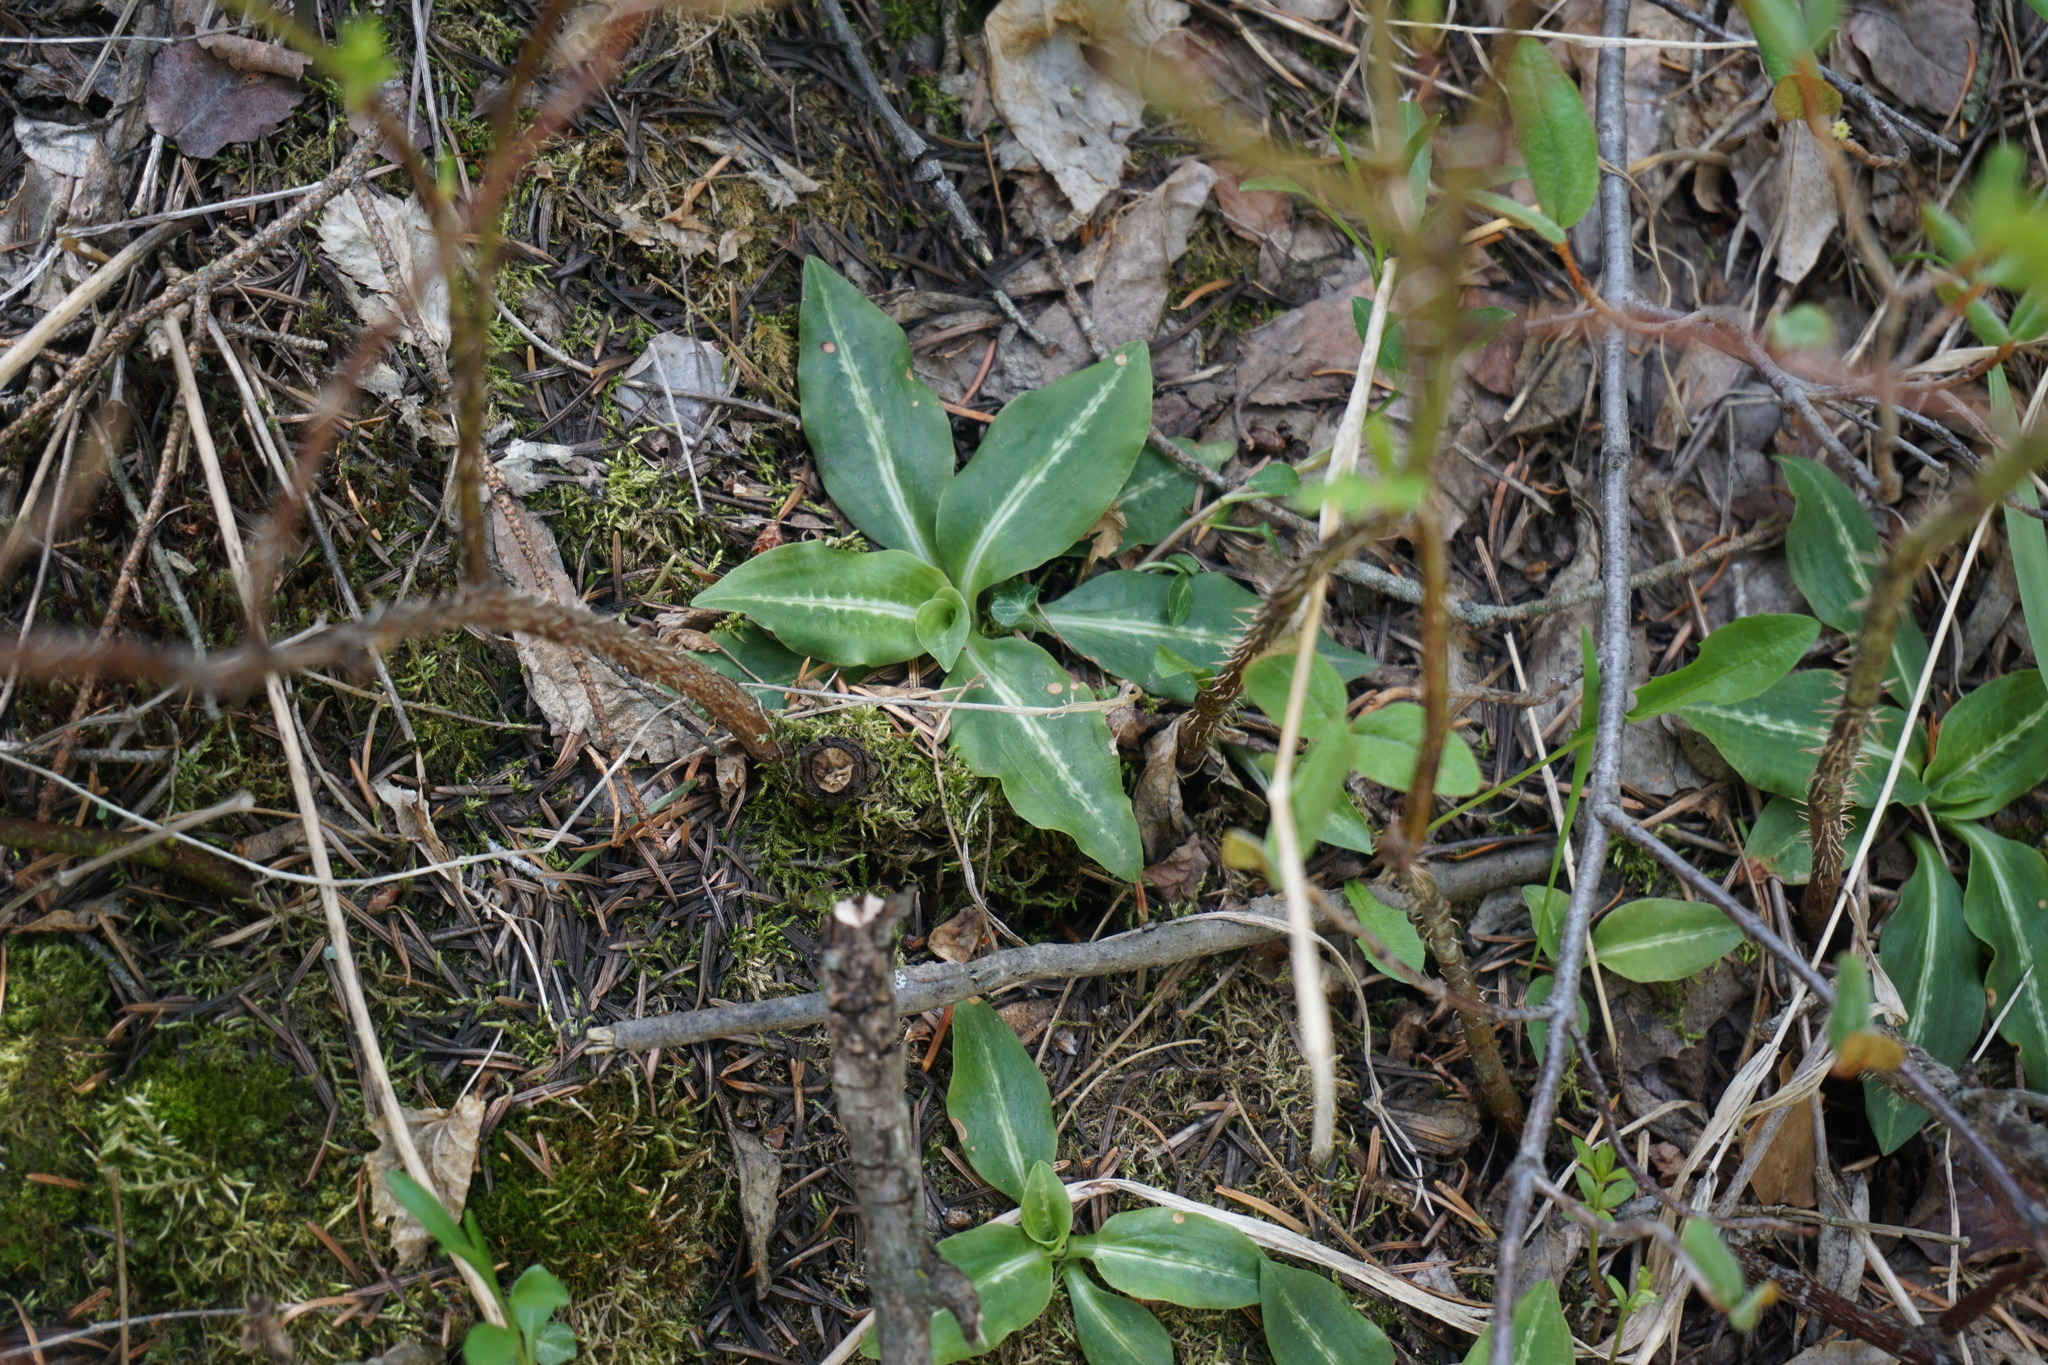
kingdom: Plantae
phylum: Tracheophyta
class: Liliopsida
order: Asparagales
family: Orchidaceae
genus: Goodyera
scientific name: Goodyera oblongifolia
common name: Giant rattlesnake-plantain
